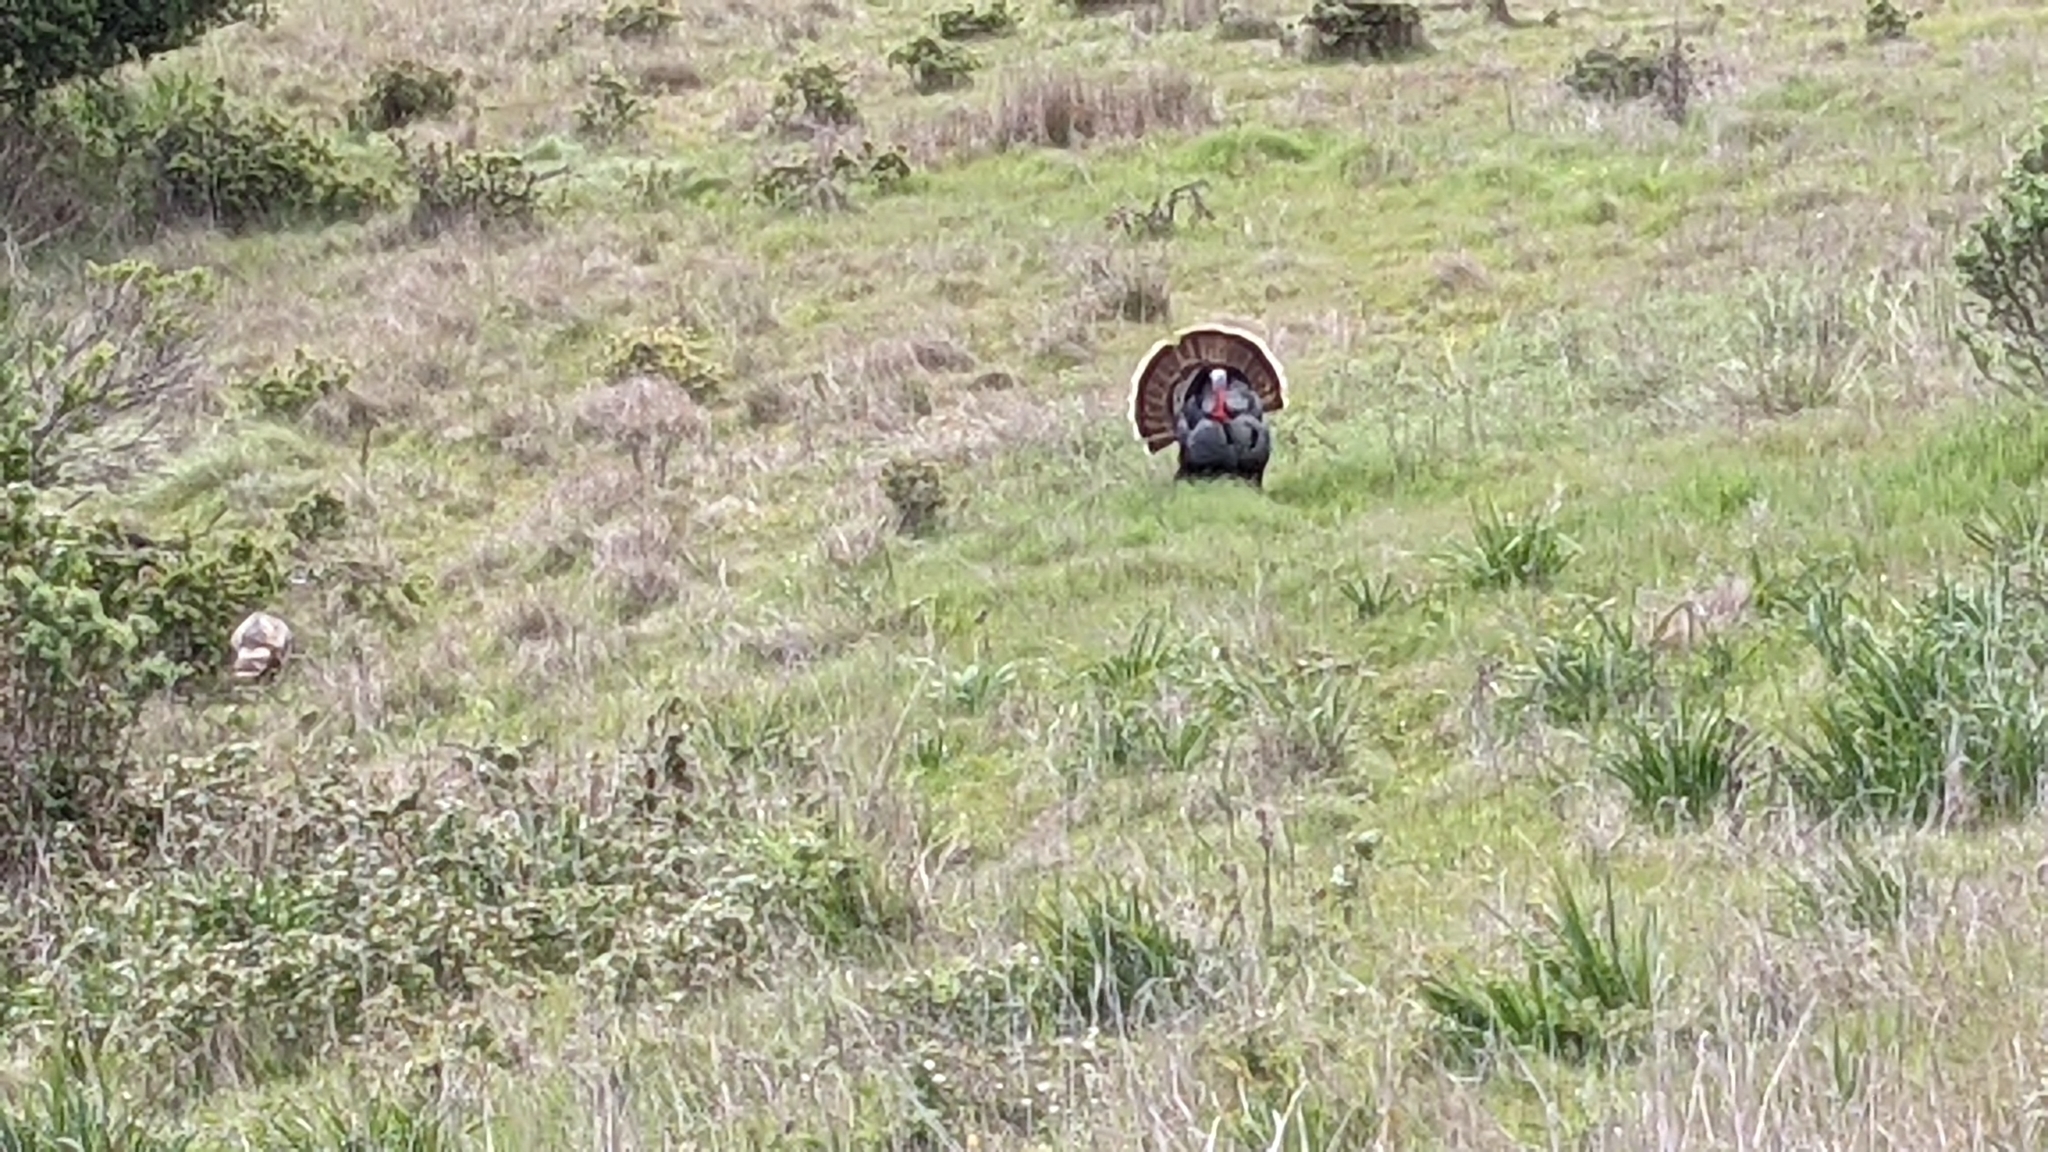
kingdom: Animalia
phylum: Chordata
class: Aves
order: Galliformes
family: Phasianidae
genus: Meleagris
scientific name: Meleagris gallopavo
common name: Wild turkey
